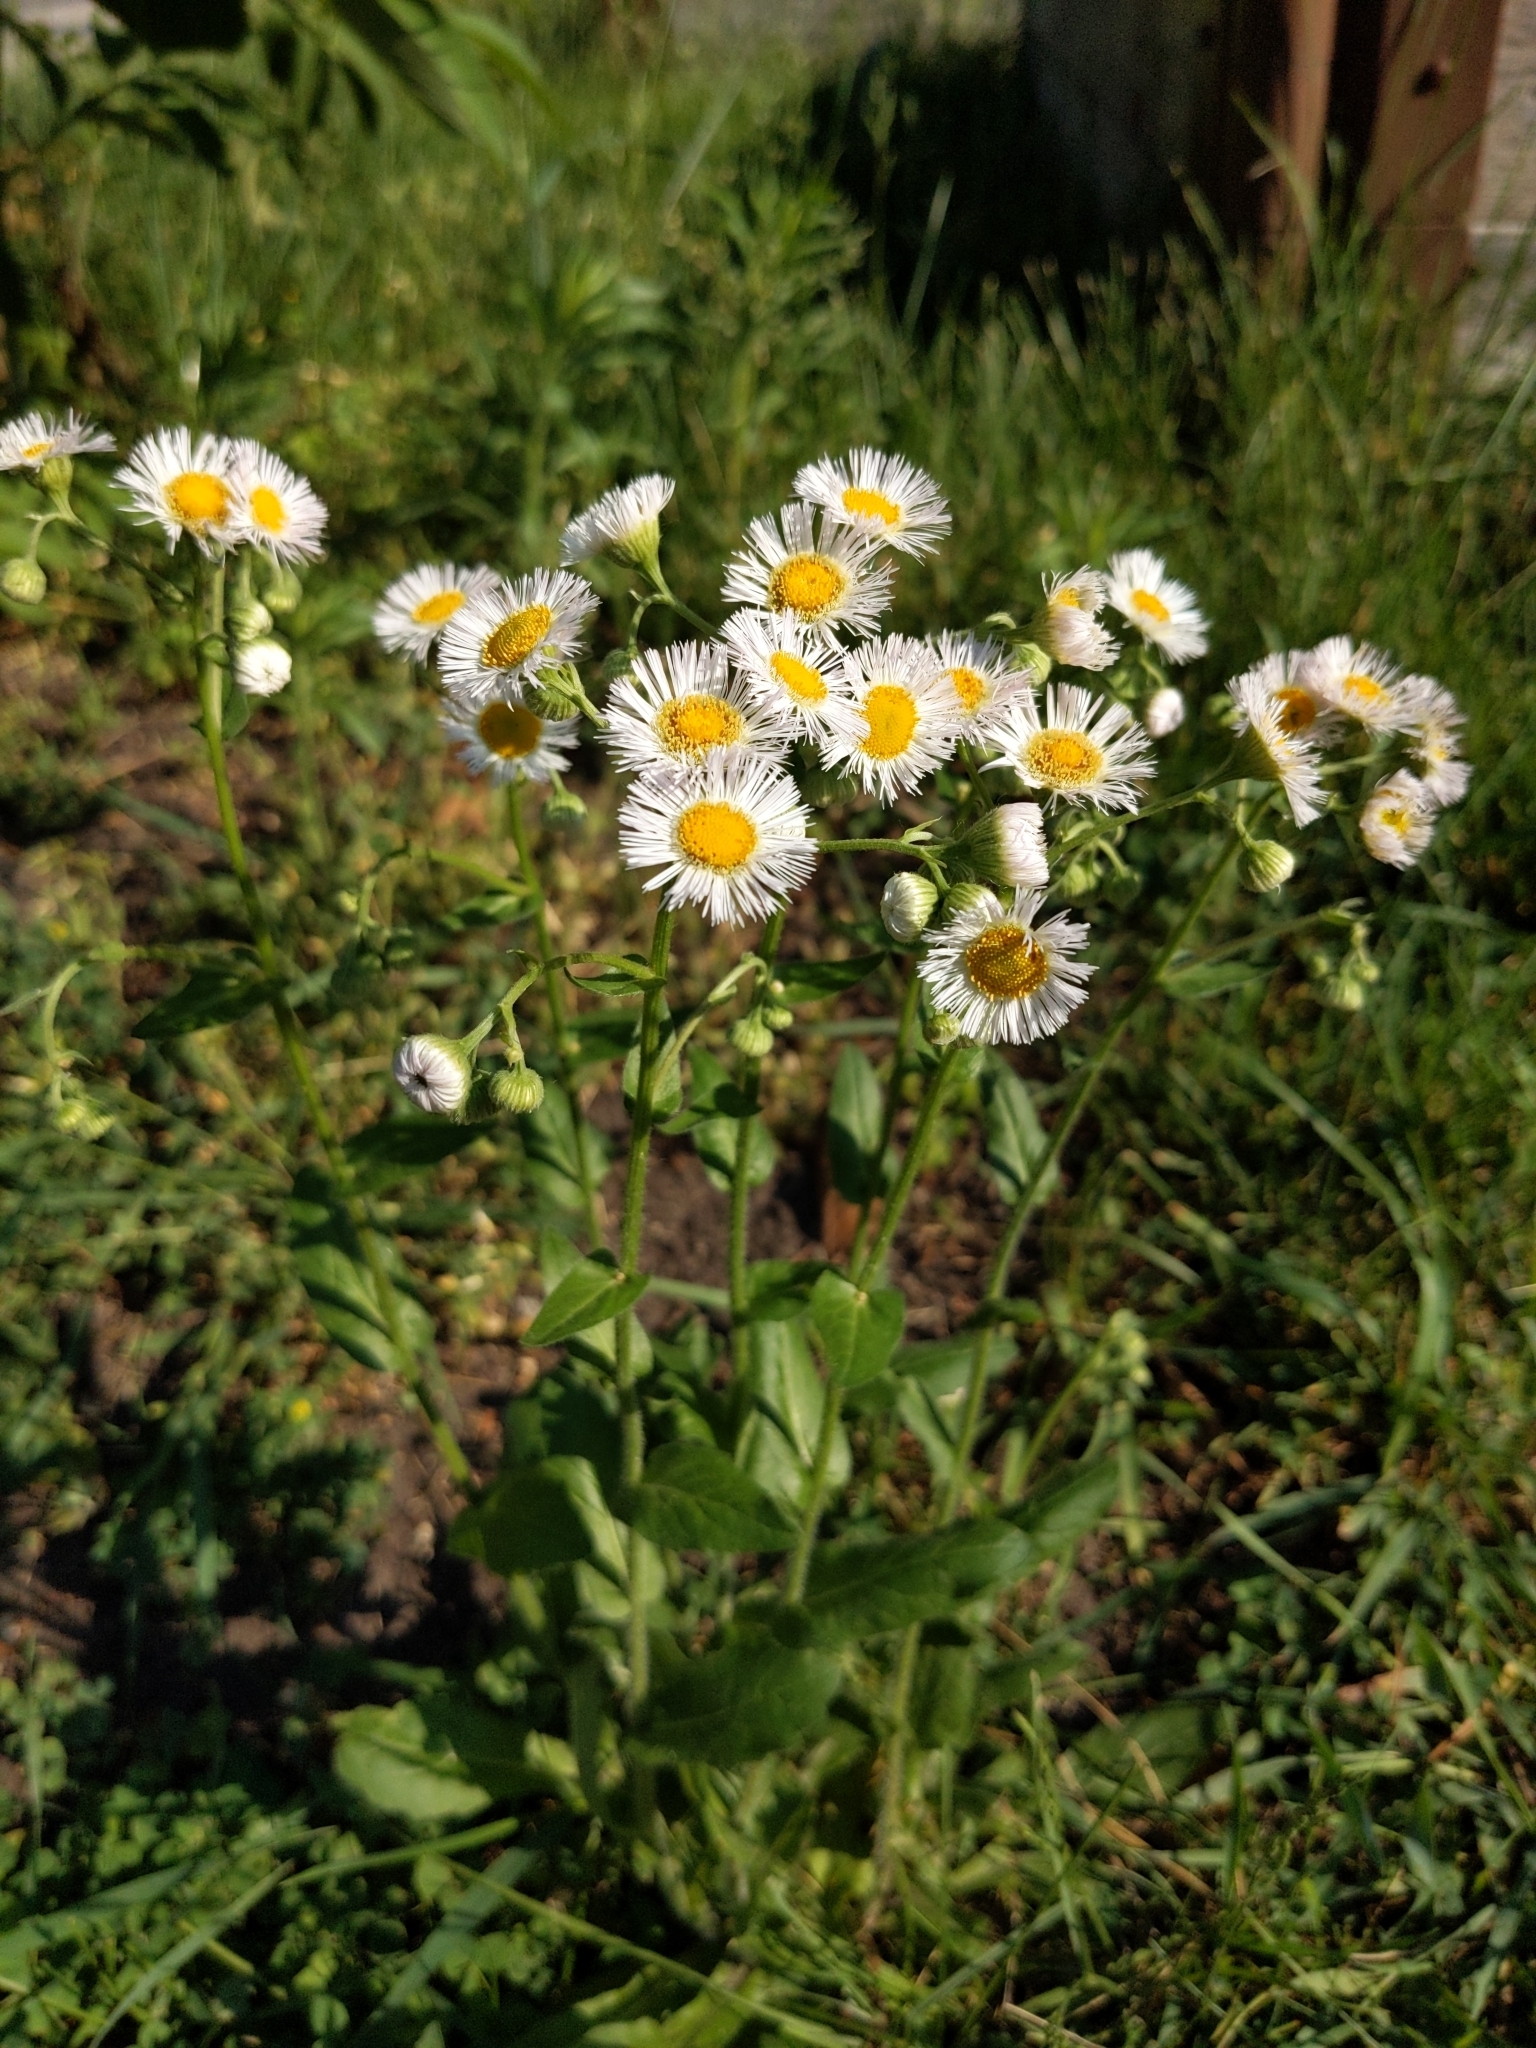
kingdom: Plantae
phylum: Tracheophyta
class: Magnoliopsida
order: Asterales
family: Asteraceae
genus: Erigeron
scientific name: Erigeron philadelphicus
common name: Robin's-plantain
